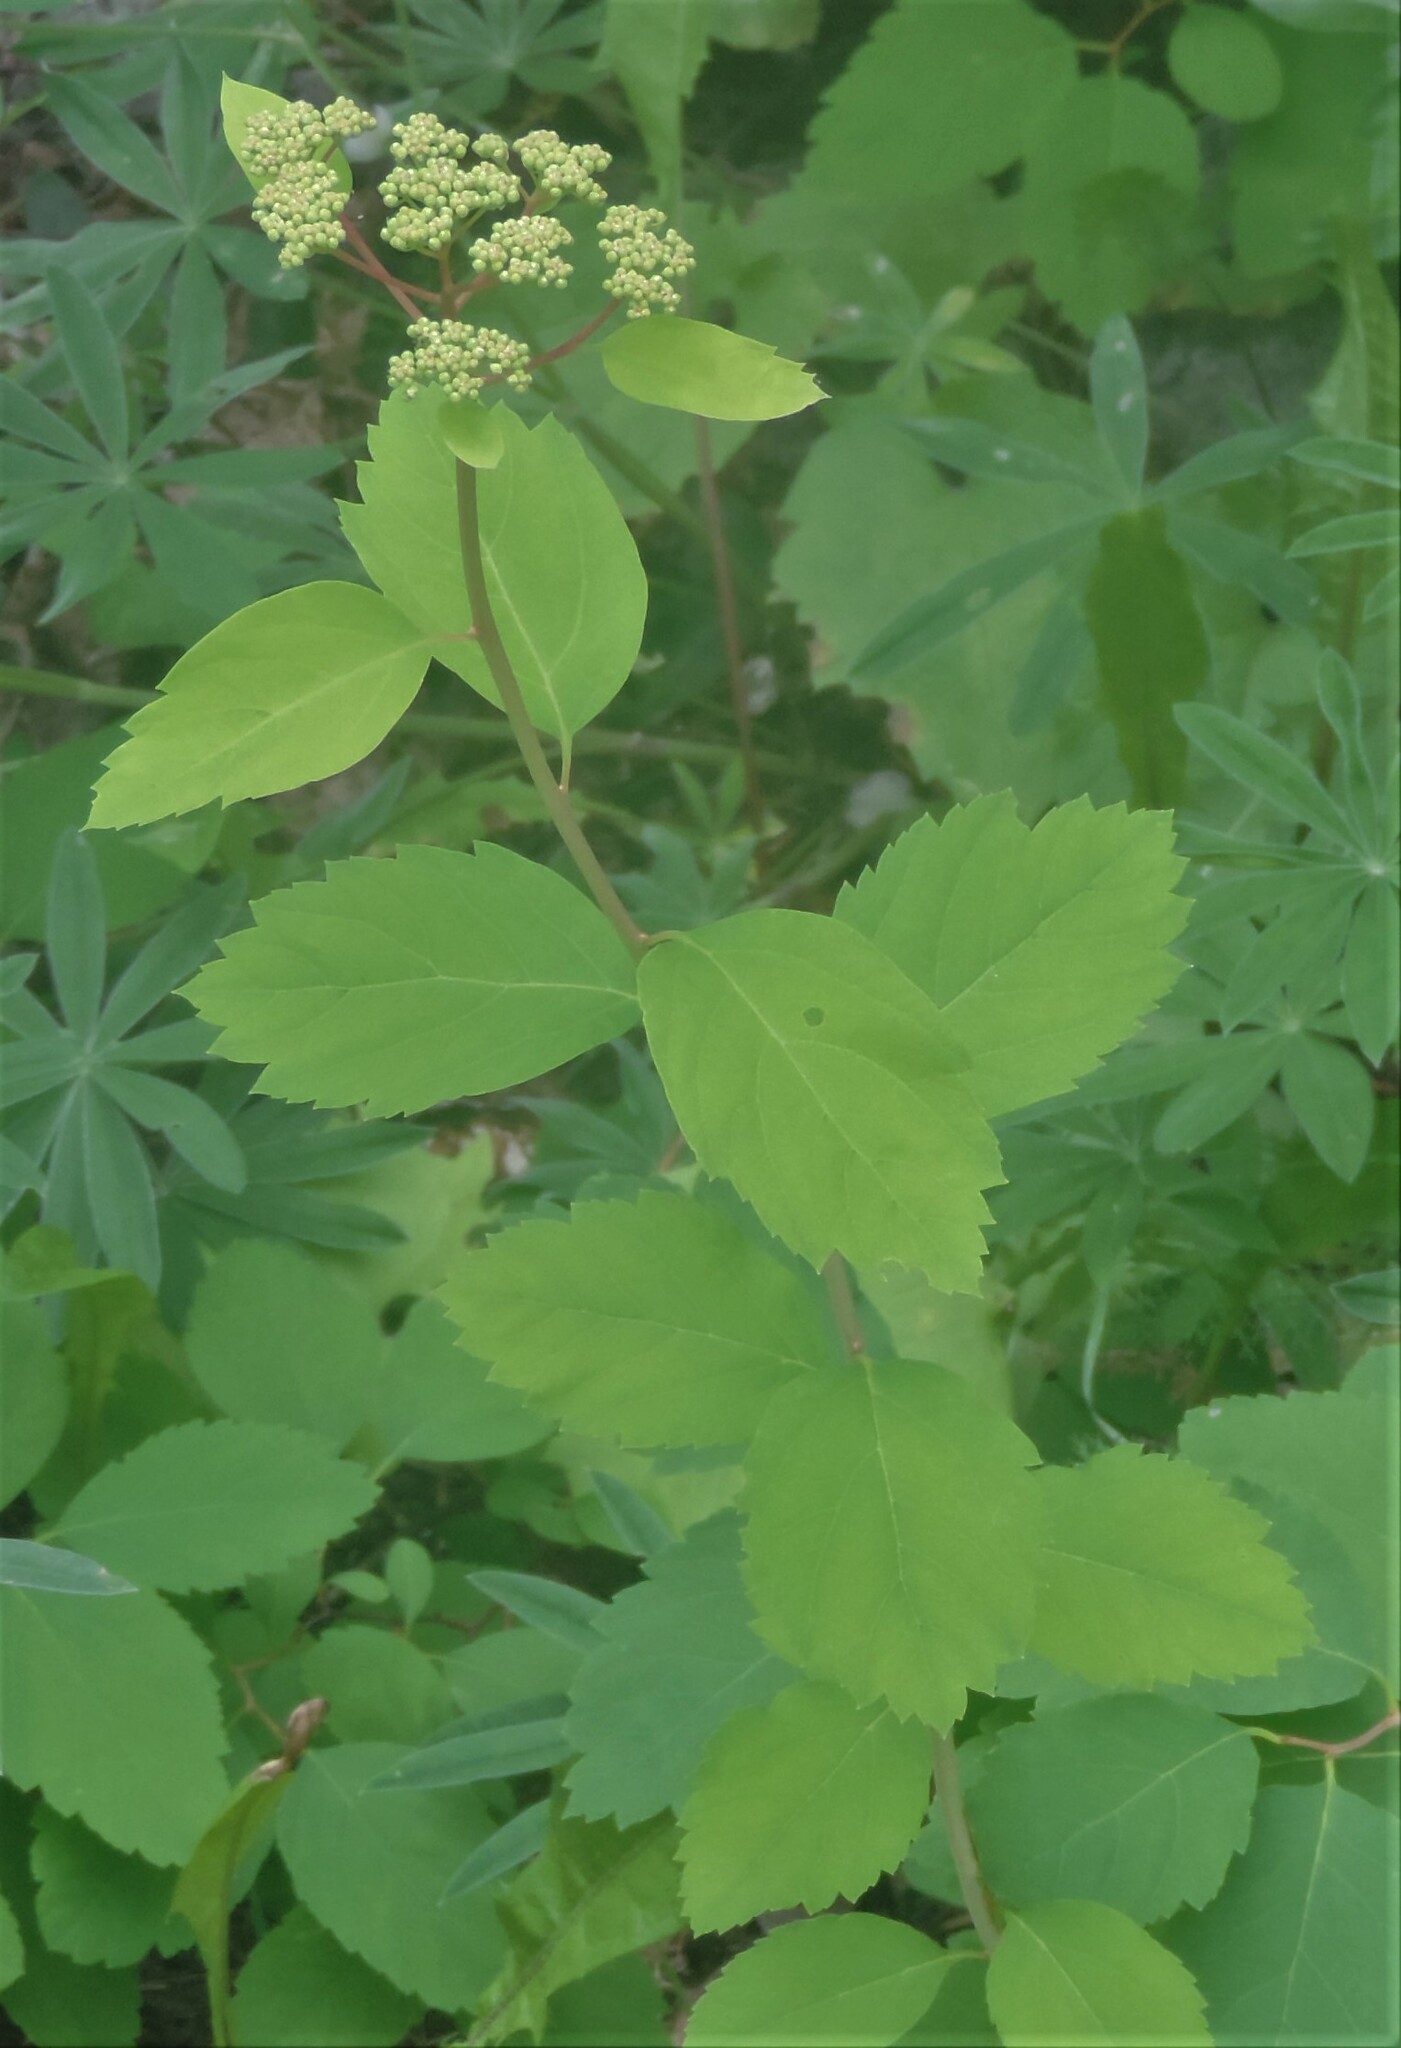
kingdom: Plantae
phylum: Tracheophyta
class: Magnoliopsida
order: Rosales
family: Rosaceae
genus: Spiraea
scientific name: Spiraea lucida
